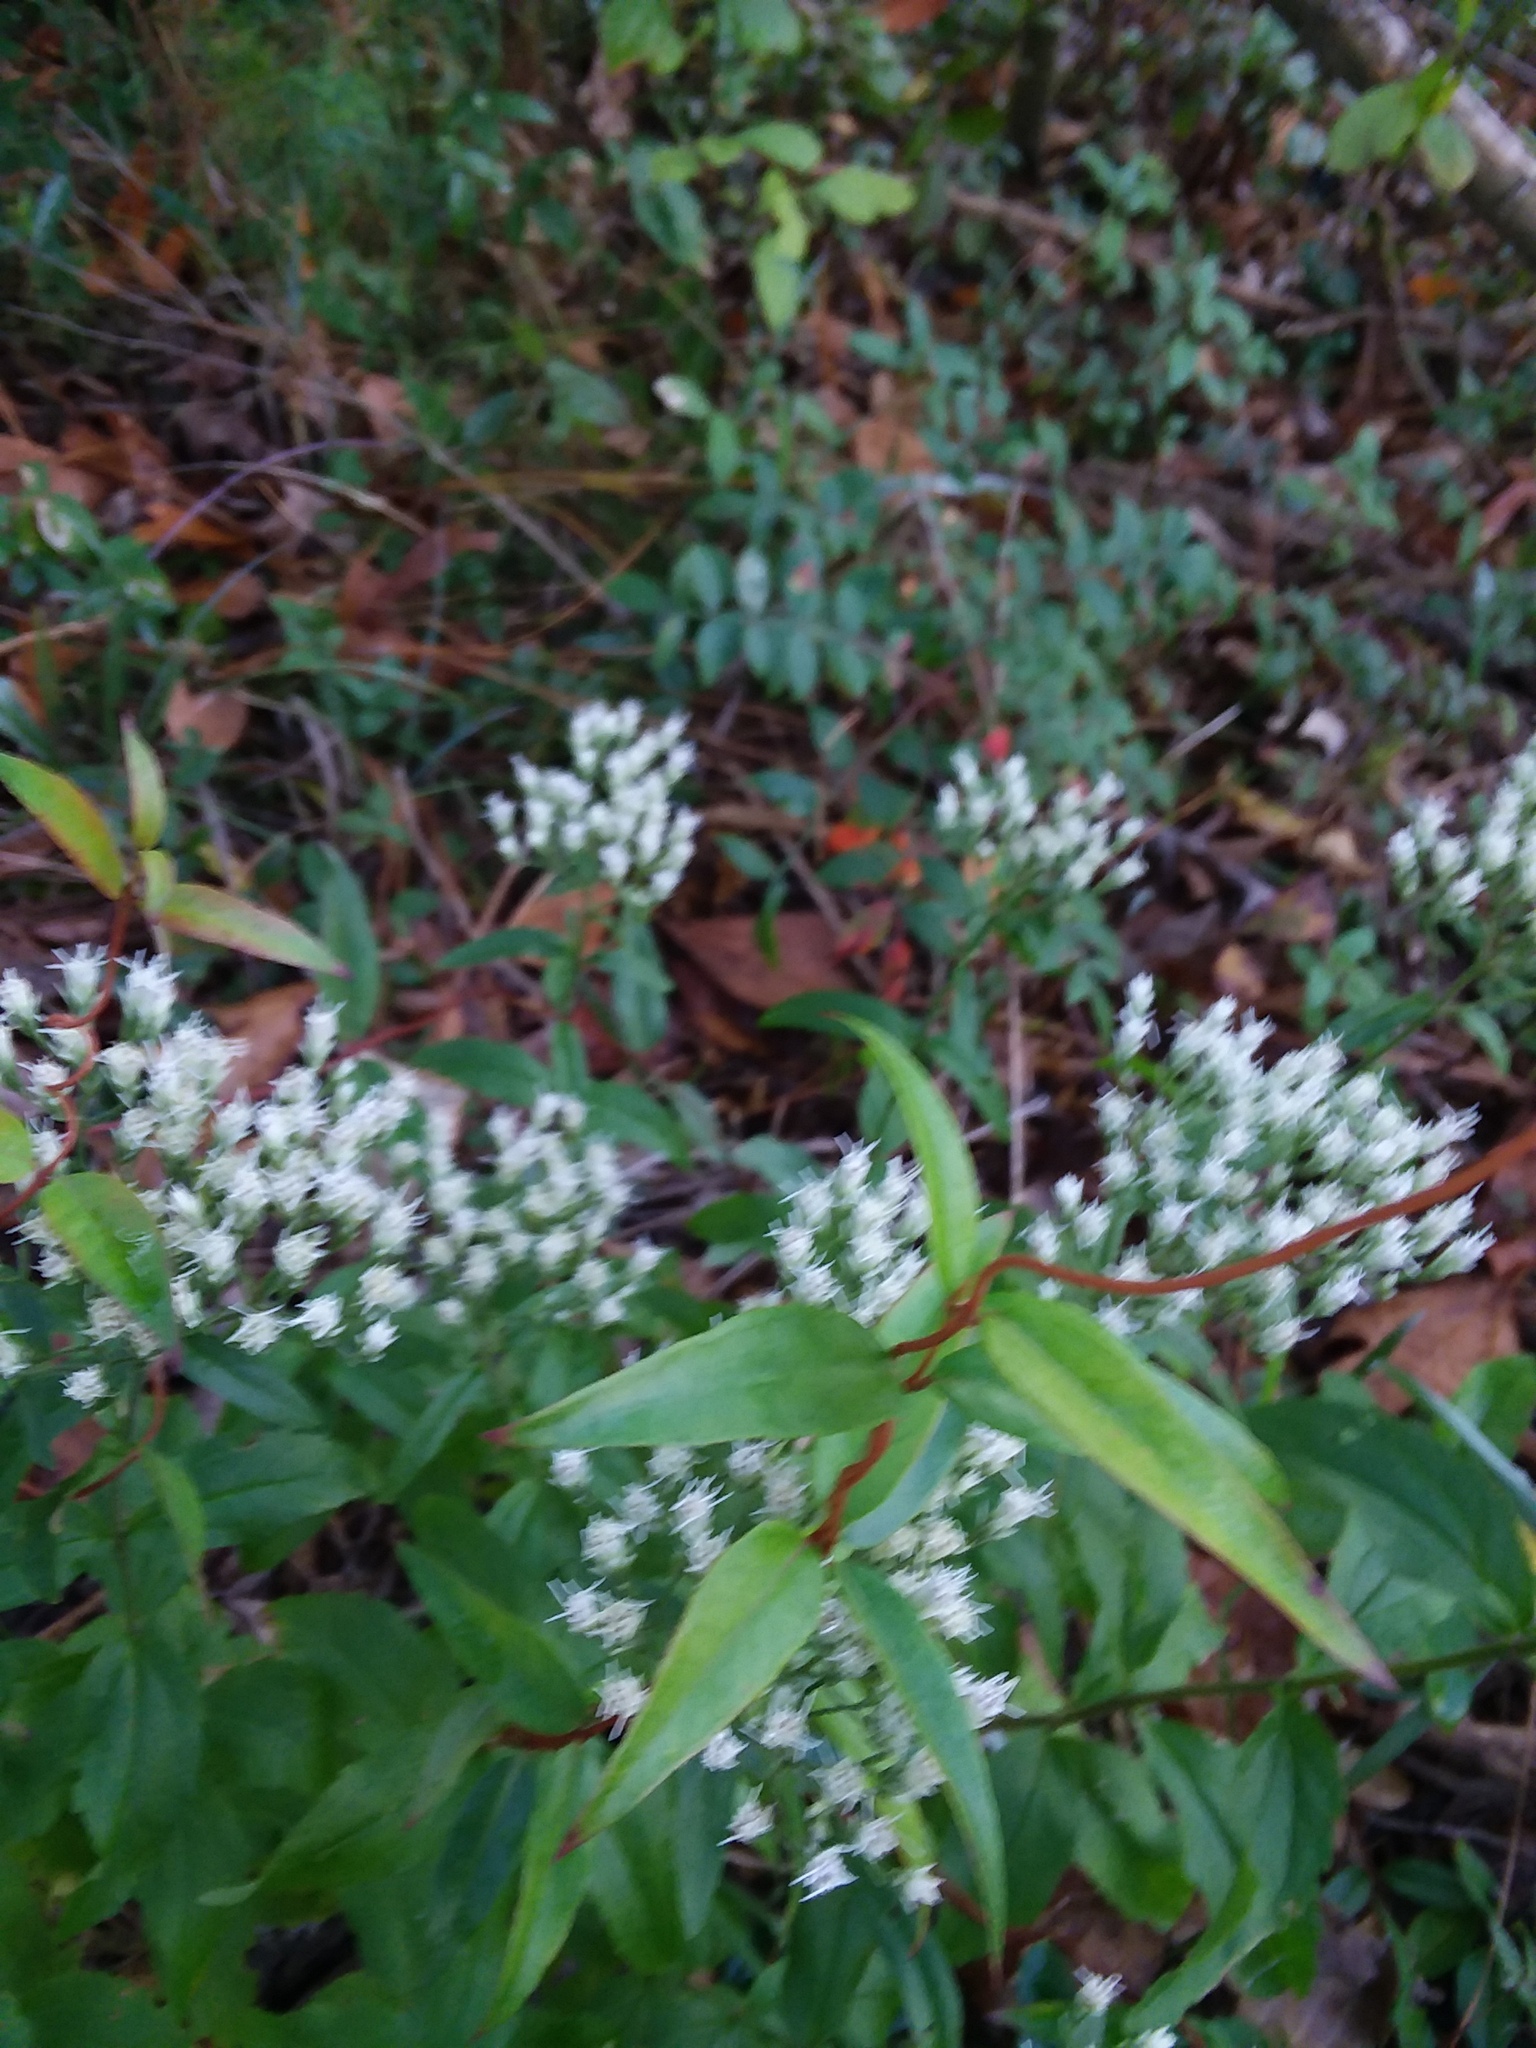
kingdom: Plantae
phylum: Tracheophyta
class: Magnoliopsida
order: Gentianales
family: Gelsemiaceae
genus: Gelsemium
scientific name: Gelsemium sempervirens
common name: Carolina-jasmine
